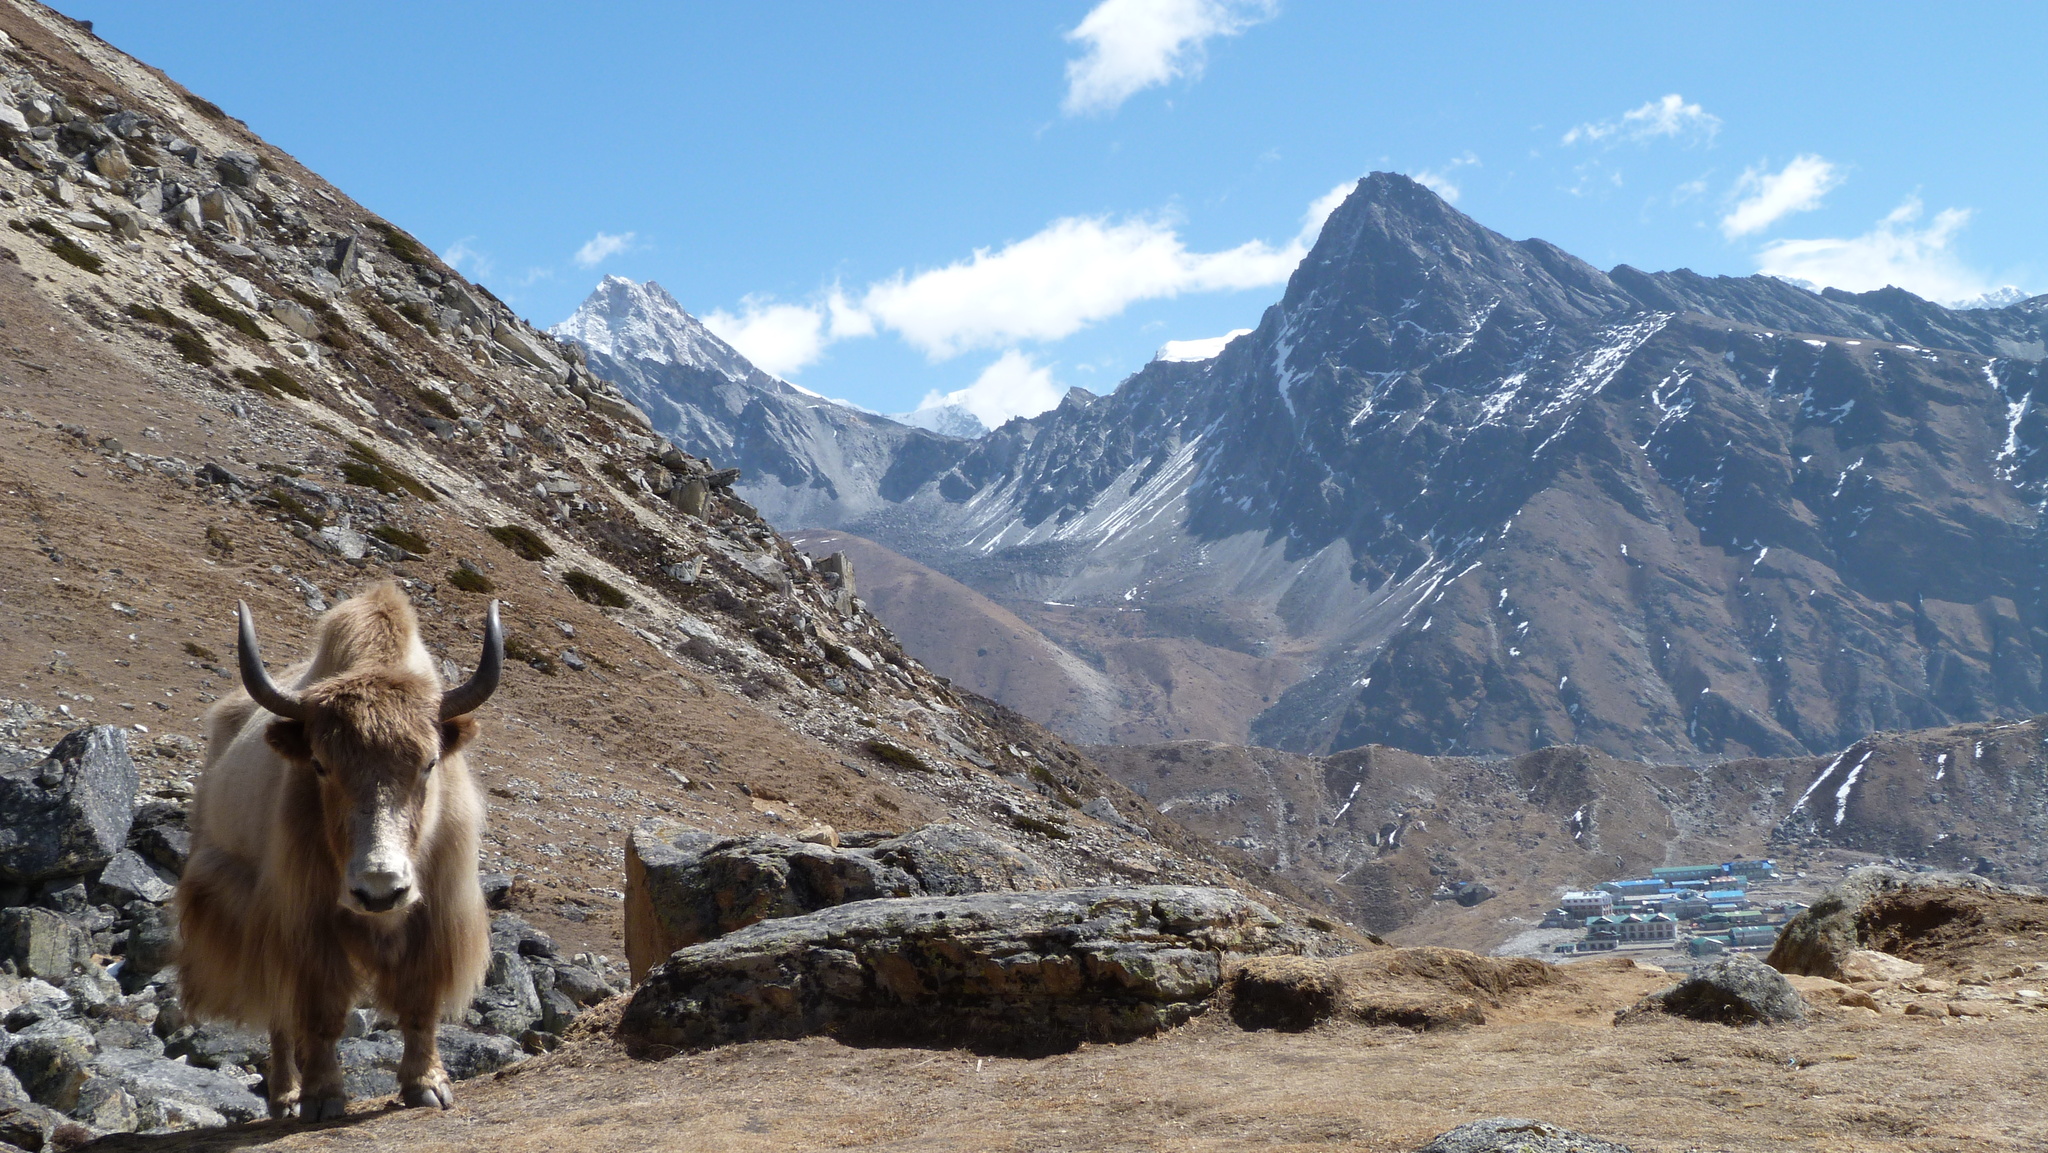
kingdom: Animalia
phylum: Chordata
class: Mammalia
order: Artiodactyla
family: Bovidae
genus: Bos
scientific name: Bos grunniens
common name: Yak
